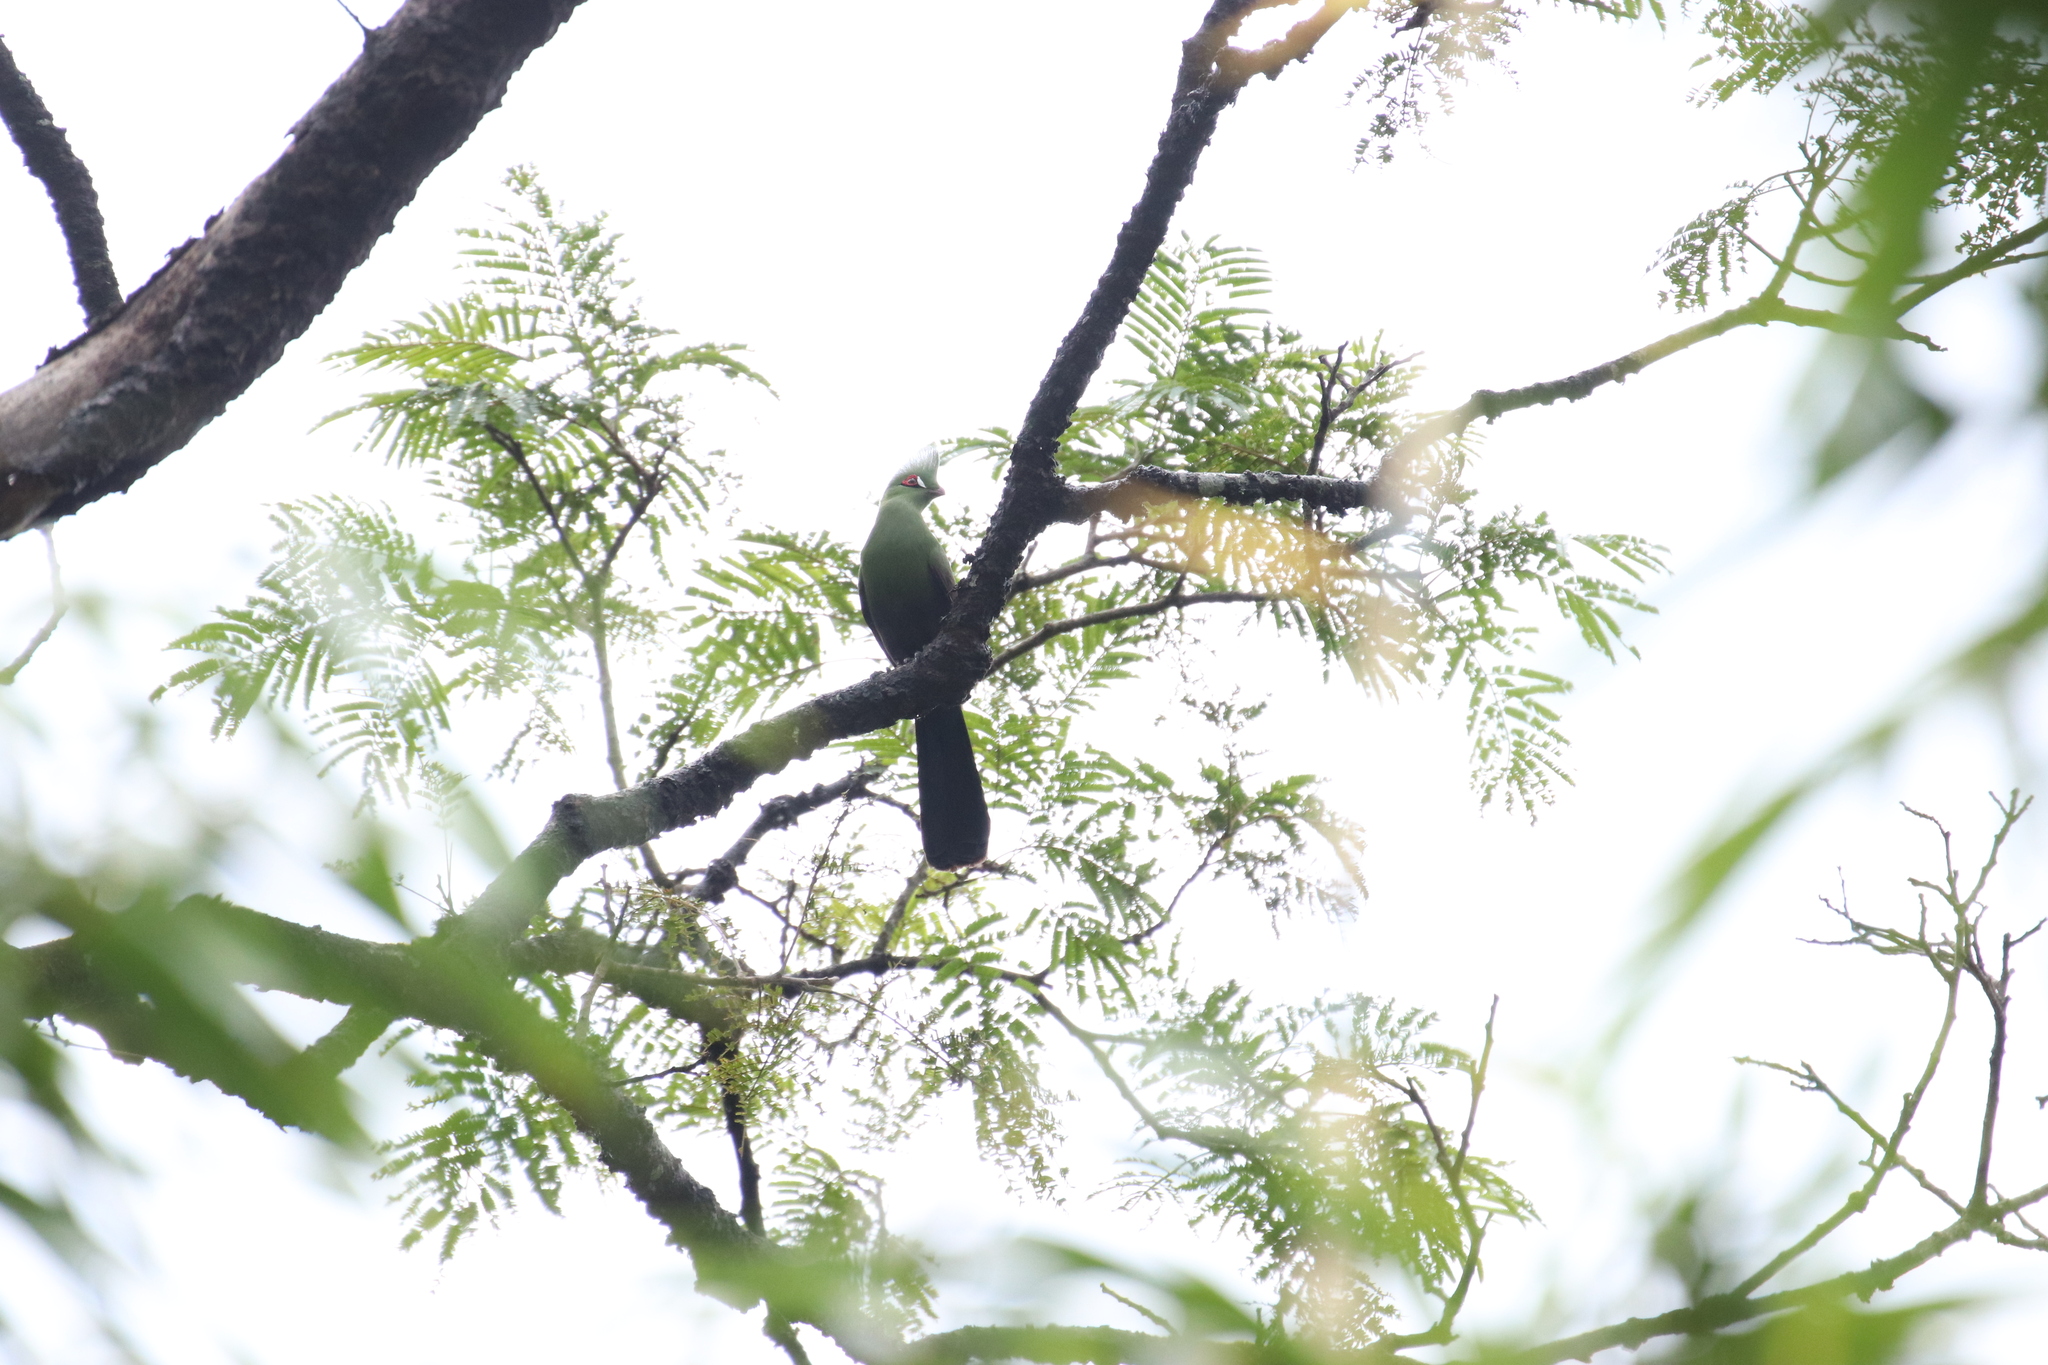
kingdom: Animalia
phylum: Chordata
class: Aves
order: Musophagiformes
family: Musophagidae
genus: Tauraco
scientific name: Tauraco persa
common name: Guinea turaco
